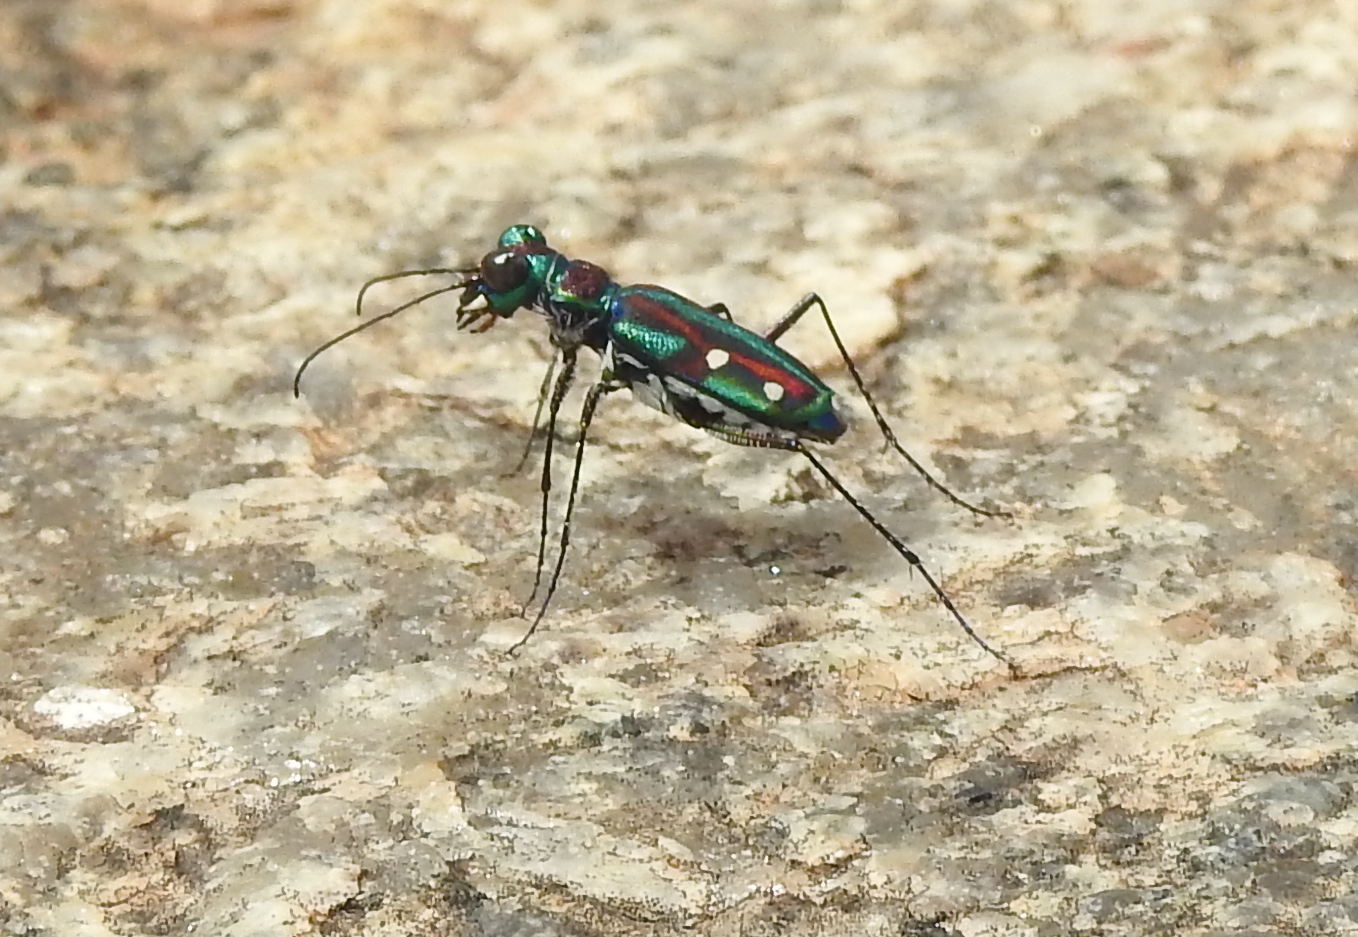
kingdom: Animalia
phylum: Arthropoda
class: Insecta
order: Coleoptera
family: Carabidae
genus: Jansenia
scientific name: Jansenia rugosiceps
